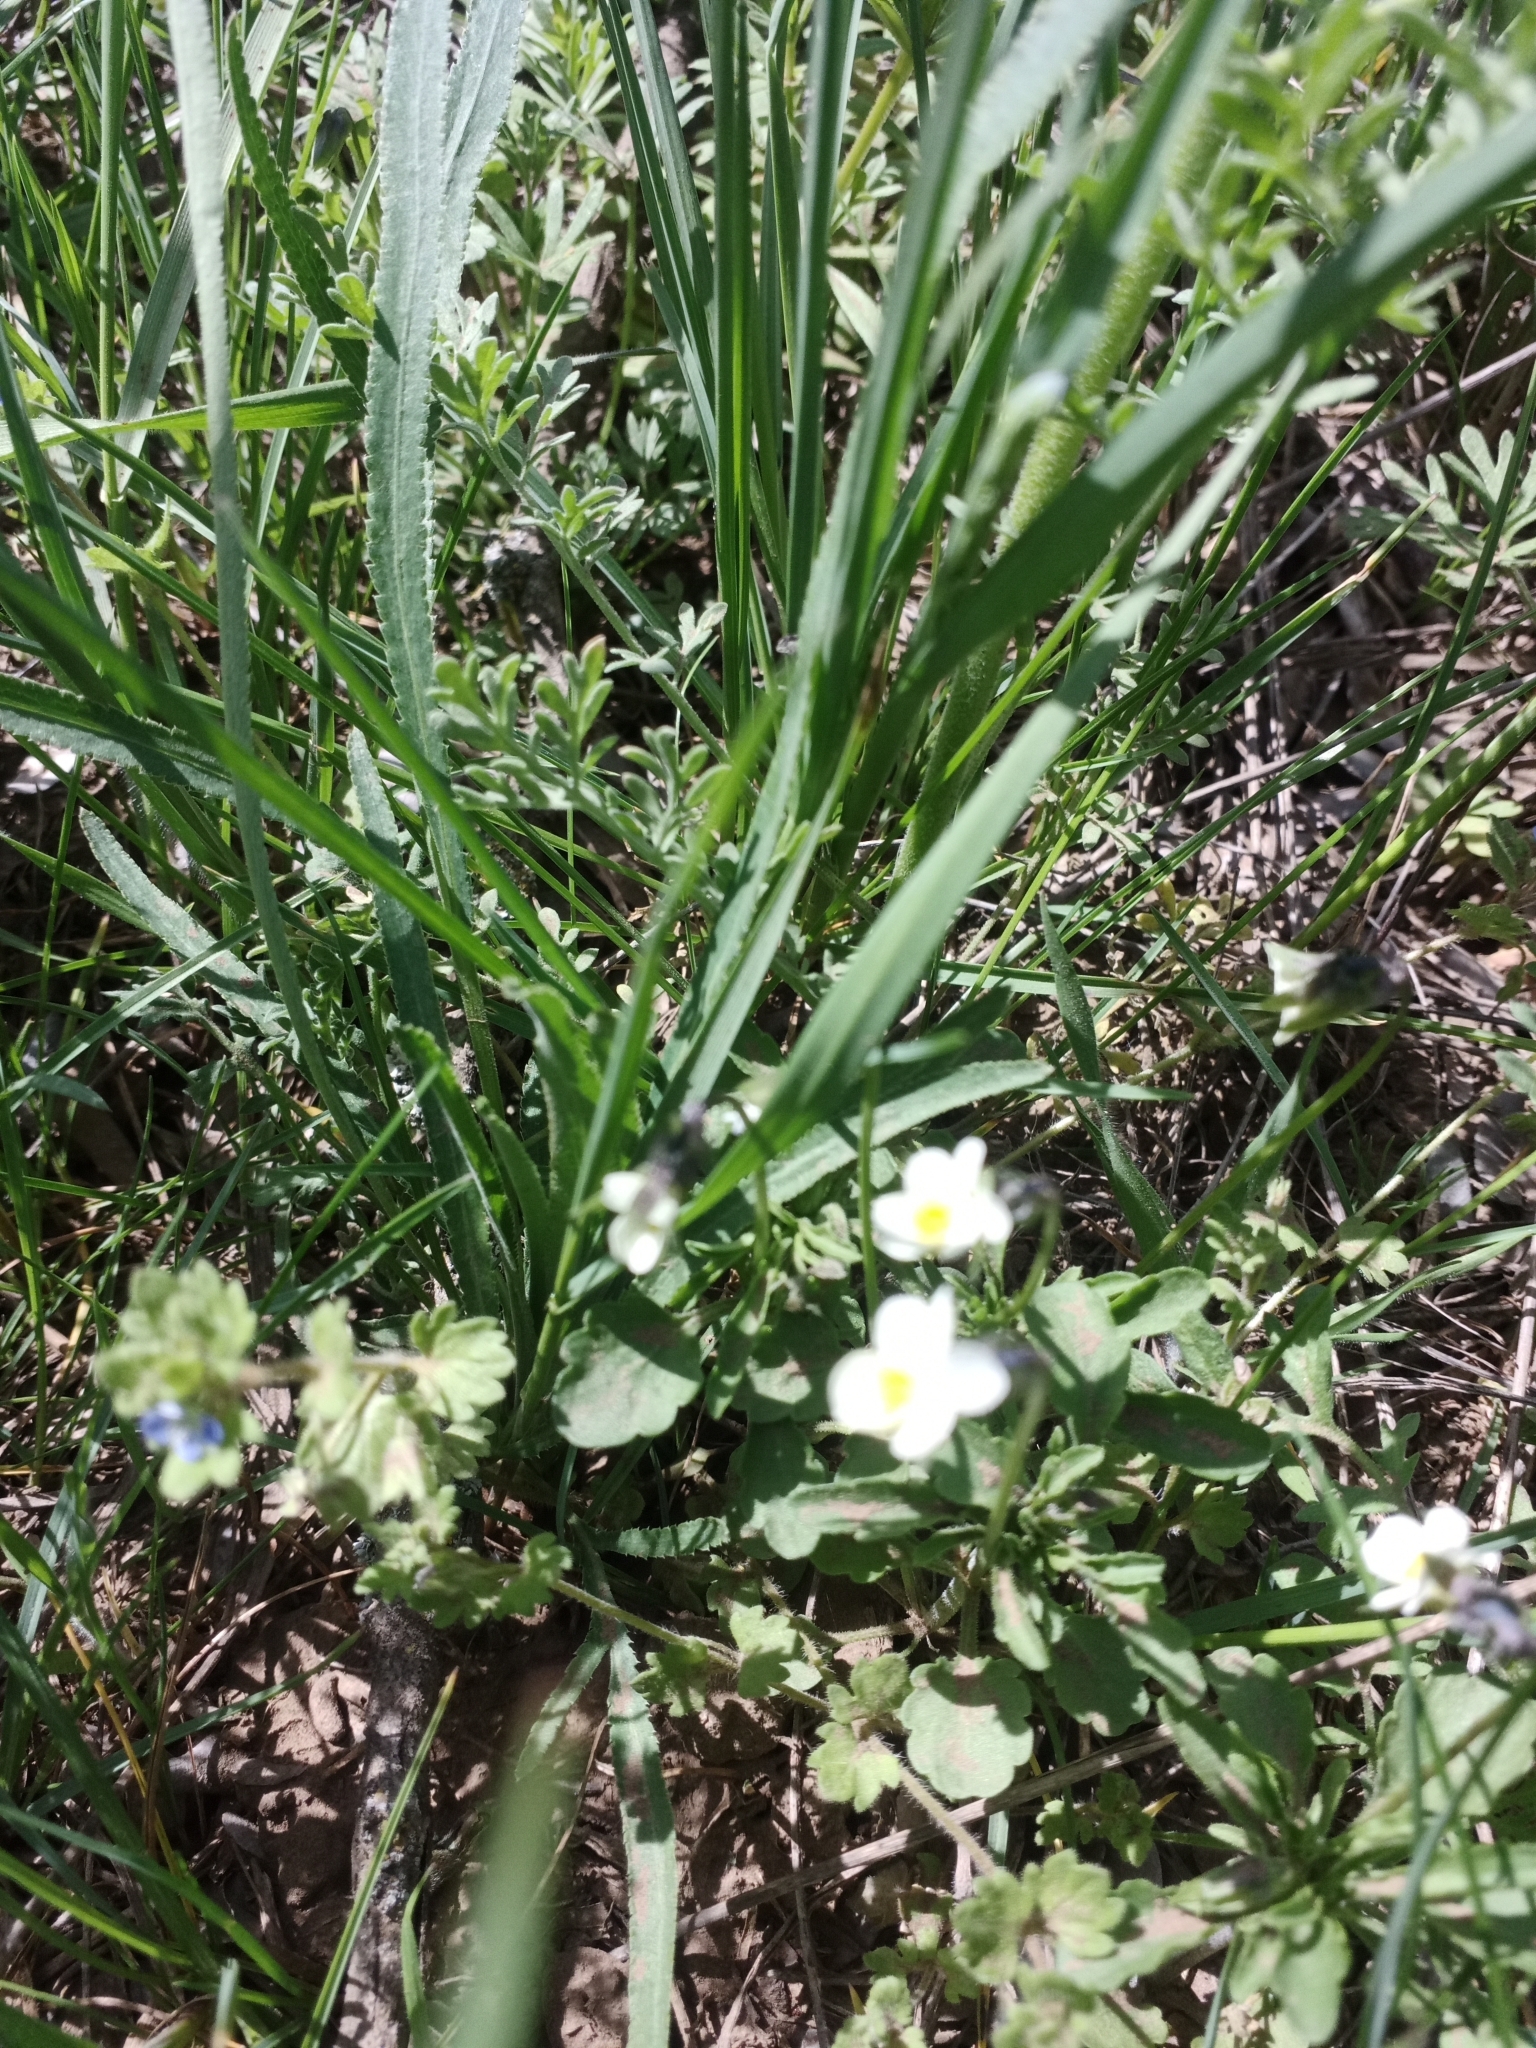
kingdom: Plantae
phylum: Tracheophyta
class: Magnoliopsida
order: Malpighiales
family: Violaceae
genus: Viola
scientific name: Viola arvensis
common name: Field pansy
